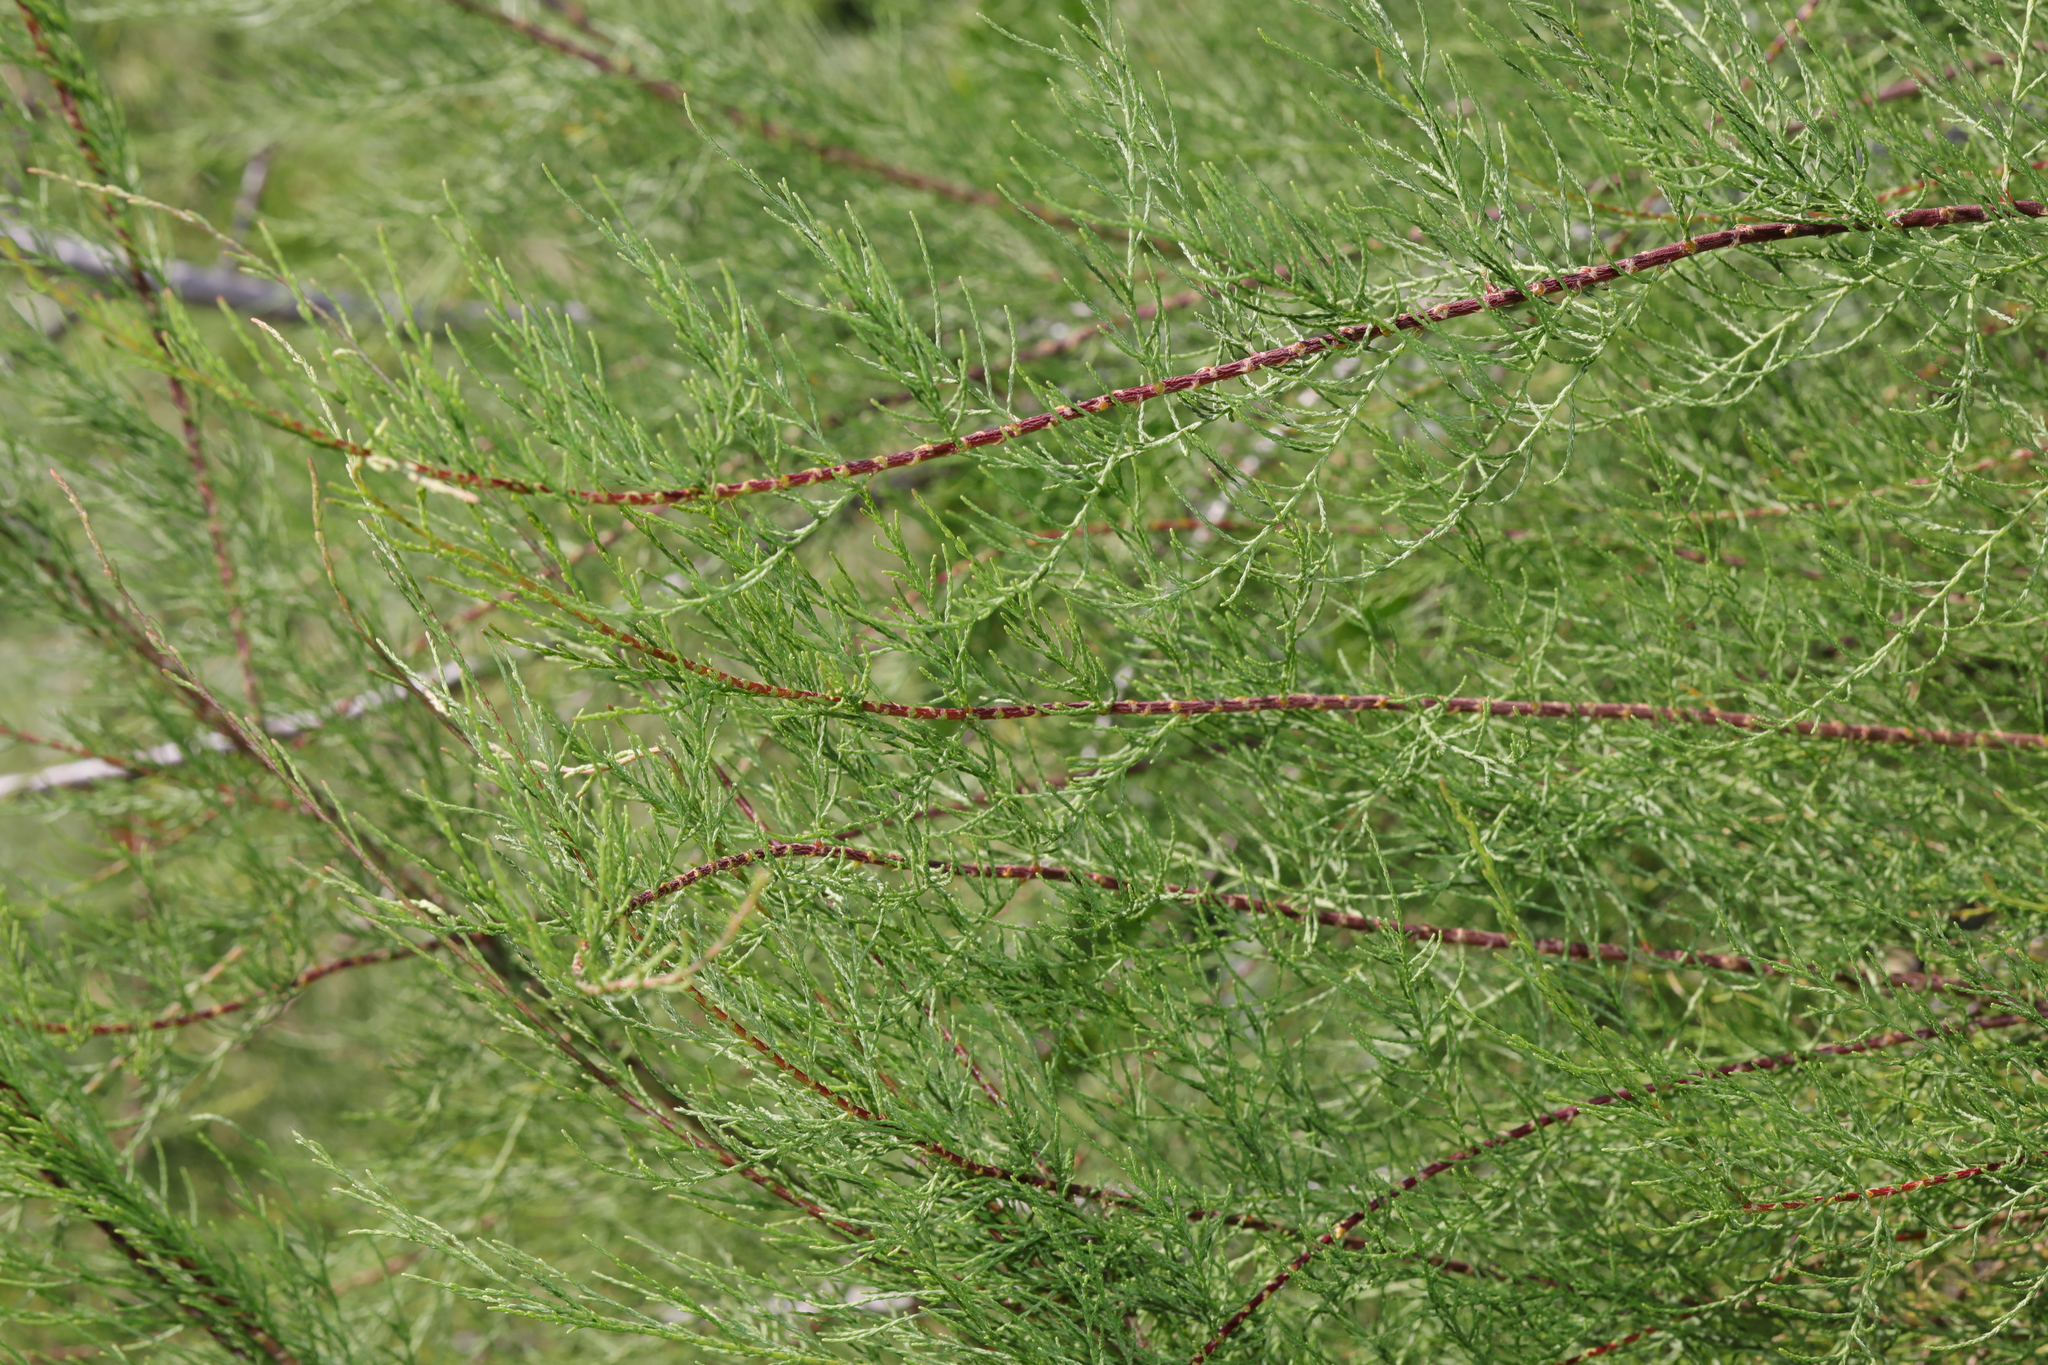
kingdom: Plantae
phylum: Tracheophyta
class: Magnoliopsida
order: Caryophyllales
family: Tamaricaceae
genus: Tamarix
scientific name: Tamarix gallica
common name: Tamarisk
